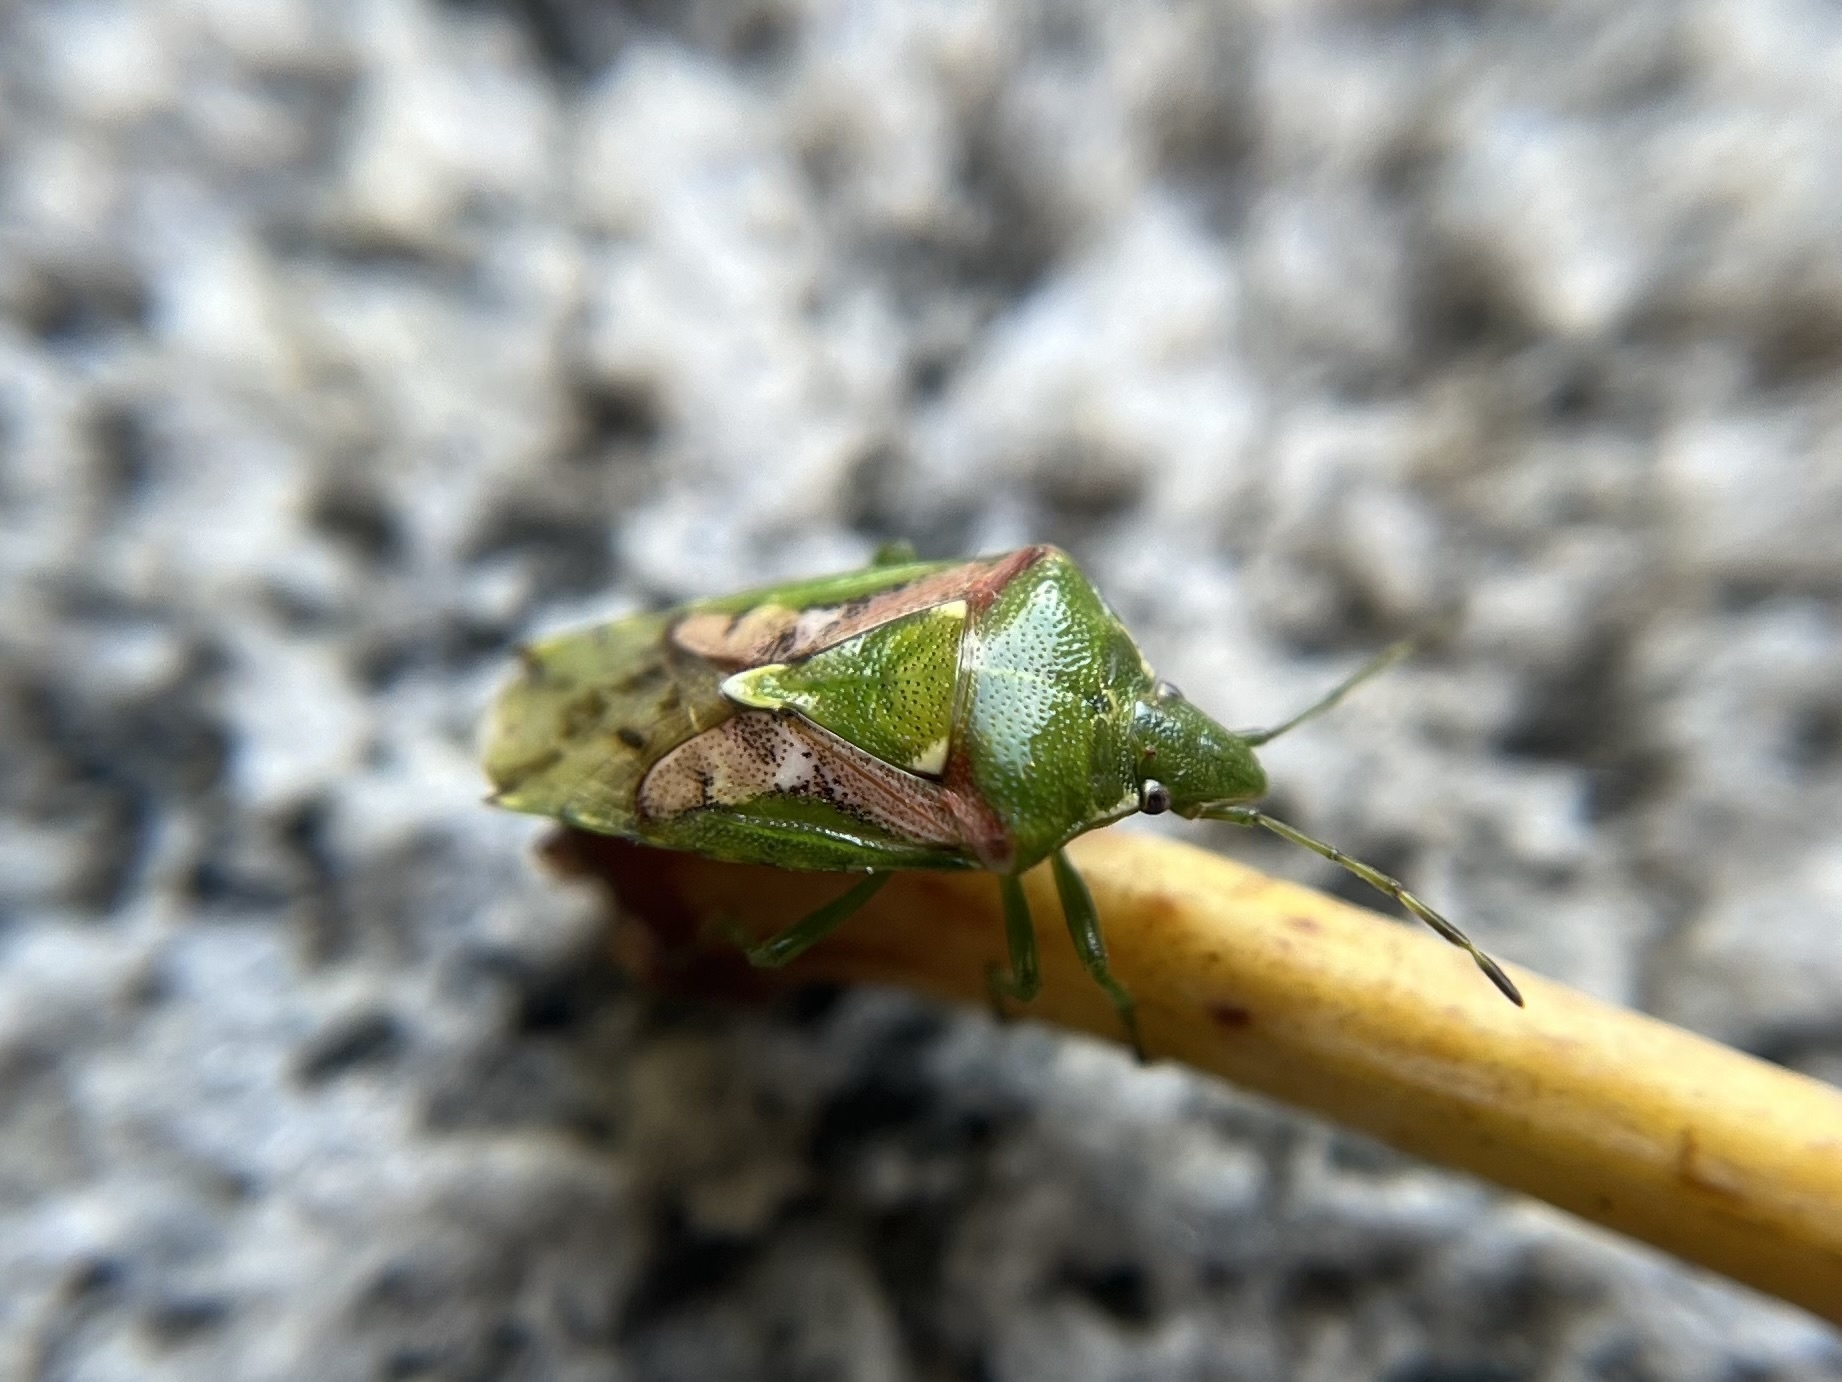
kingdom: Animalia
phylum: Arthropoda
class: Insecta
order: Hemiptera
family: Acanthosomatidae
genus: Cyphostethus
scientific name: Cyphostethus tristriatus
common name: Juniper shieldbug
